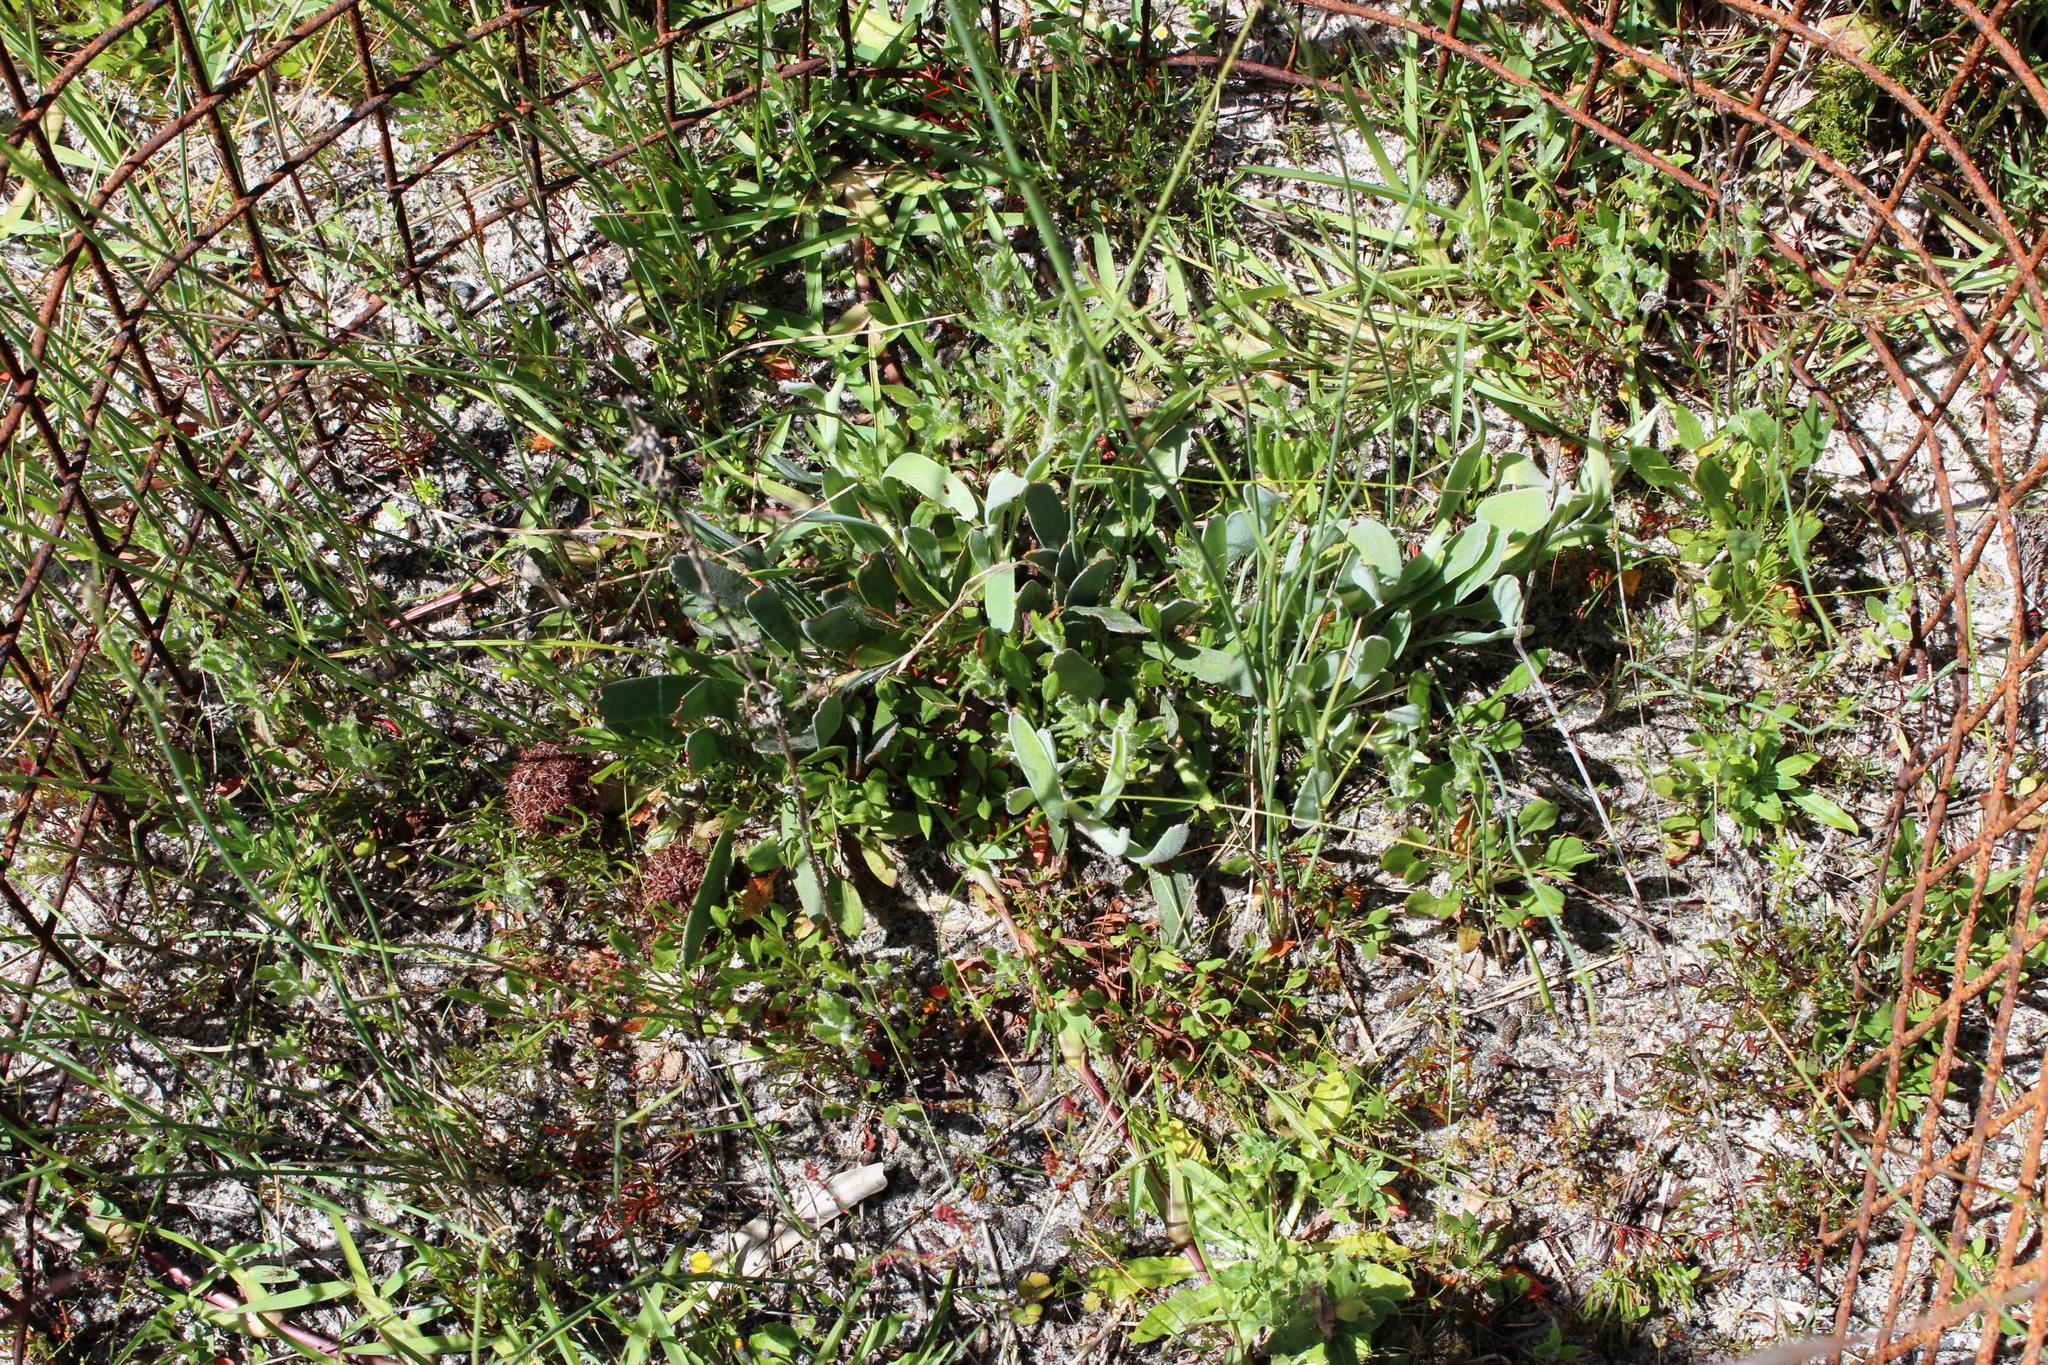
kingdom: Plantae
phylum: Tracheophyta
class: Magnoliopsida
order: Proteales
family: Proteaceae
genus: Leucospermum
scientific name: Leucospermum hypophyllocarpodendron
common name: Snakestem pincushion
